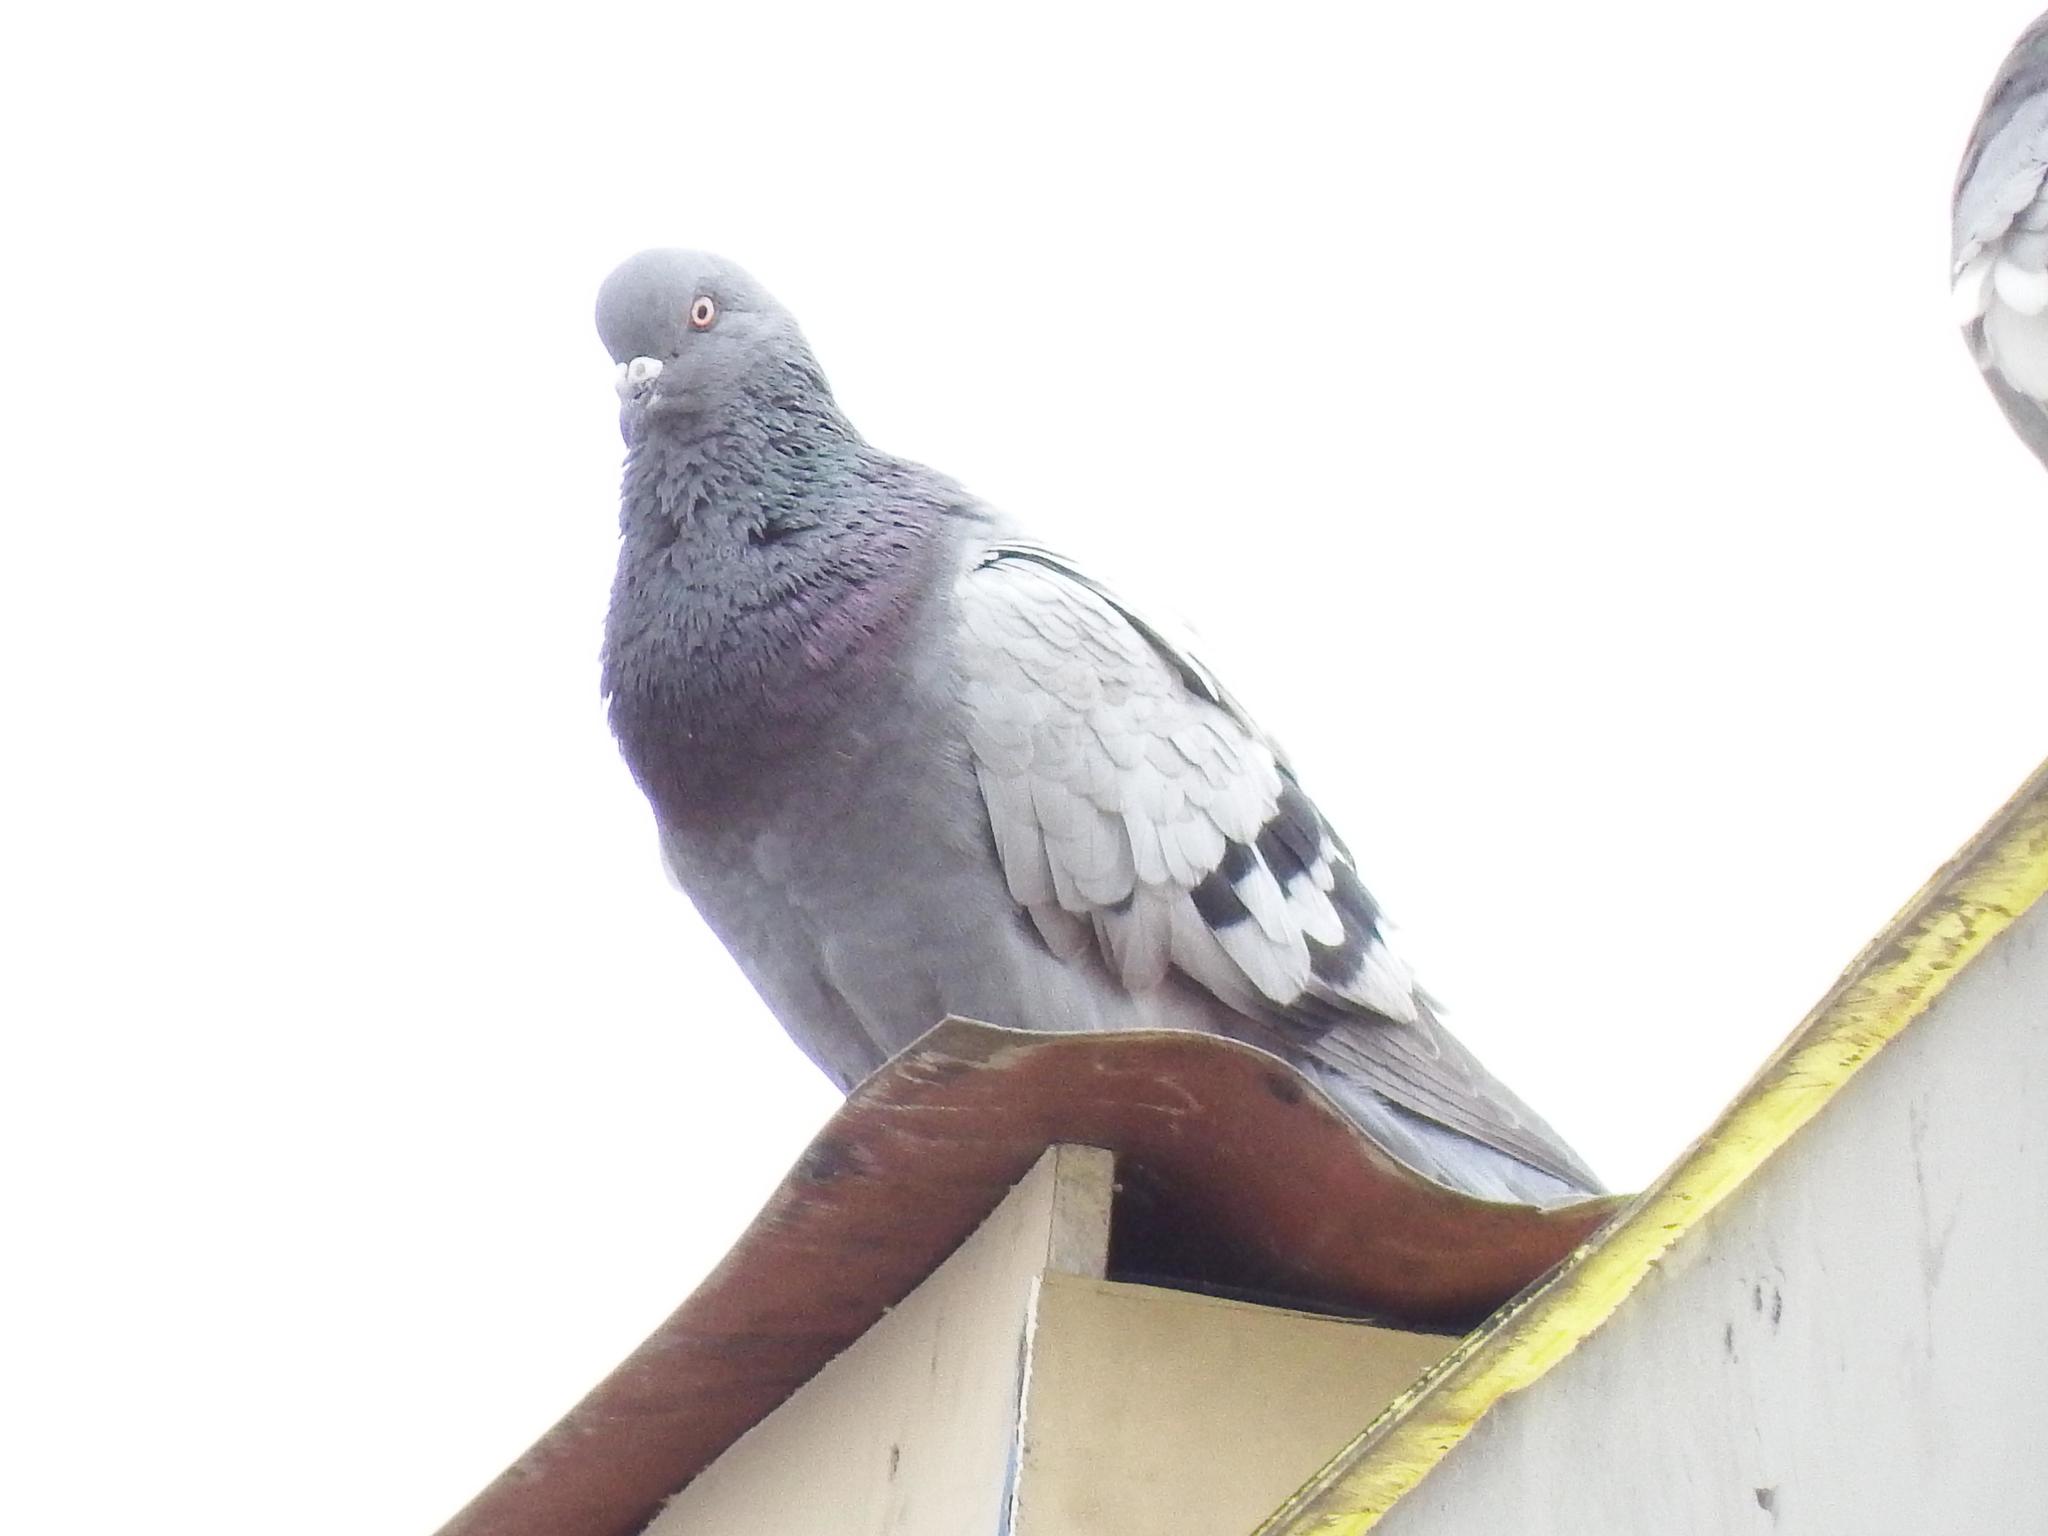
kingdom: Animalia
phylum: Chordata
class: Aves
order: Columbiformes
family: Columbidae
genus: Columba
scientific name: Columba livia
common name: Rock pigeon
